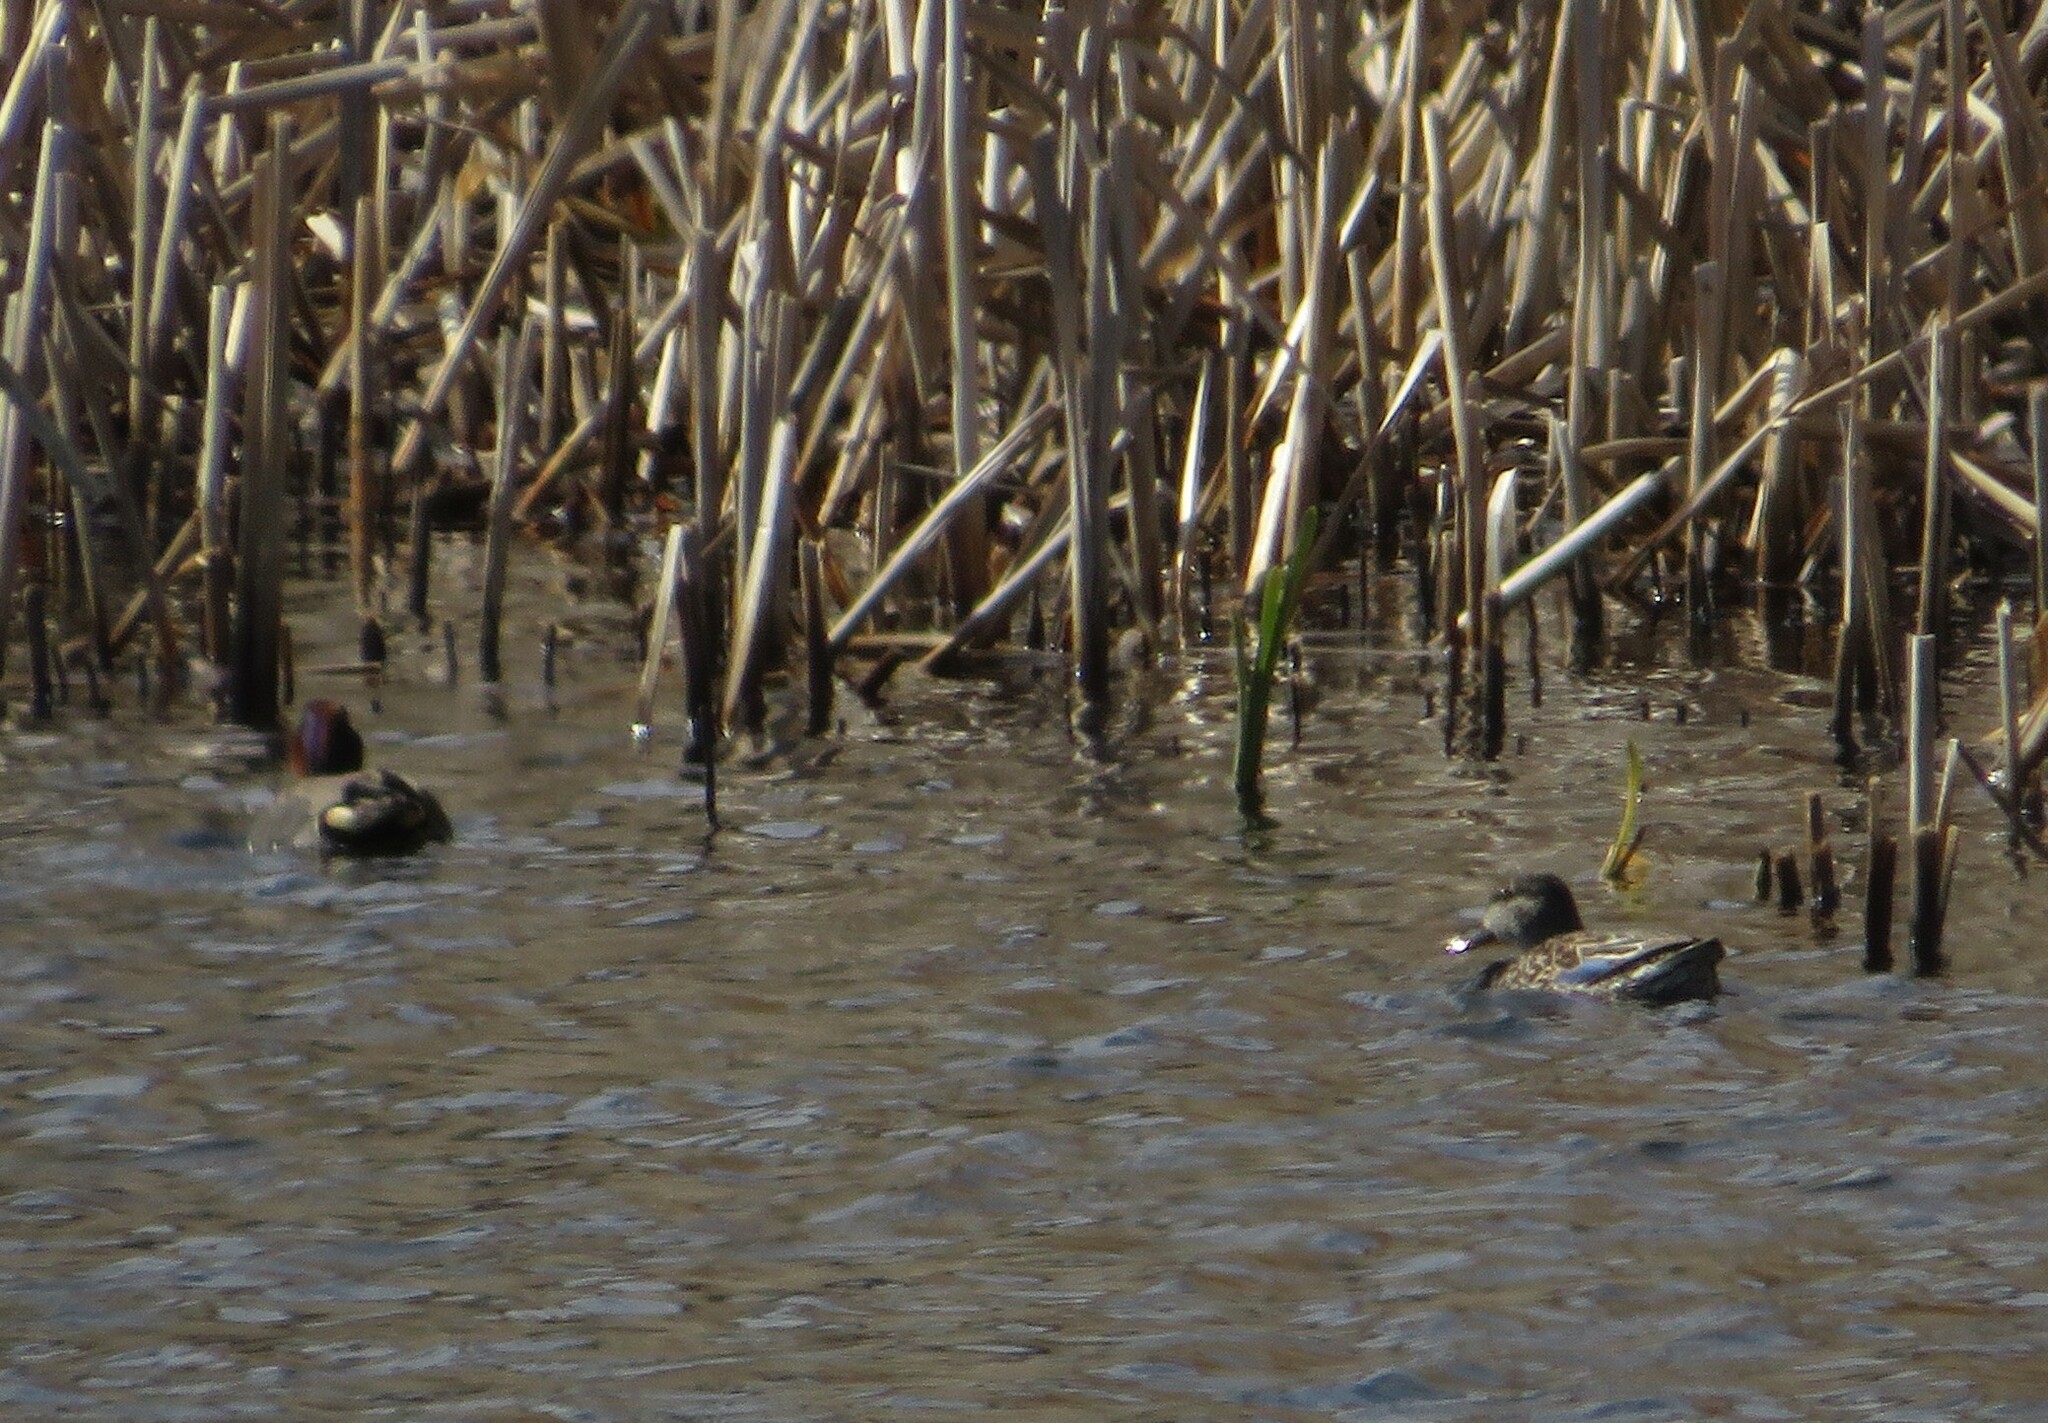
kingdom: Animalia
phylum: Chordata
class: Aves
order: Anseriformes
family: Anatidae
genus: Anas
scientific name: Anas crecca
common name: Eurasian teal
